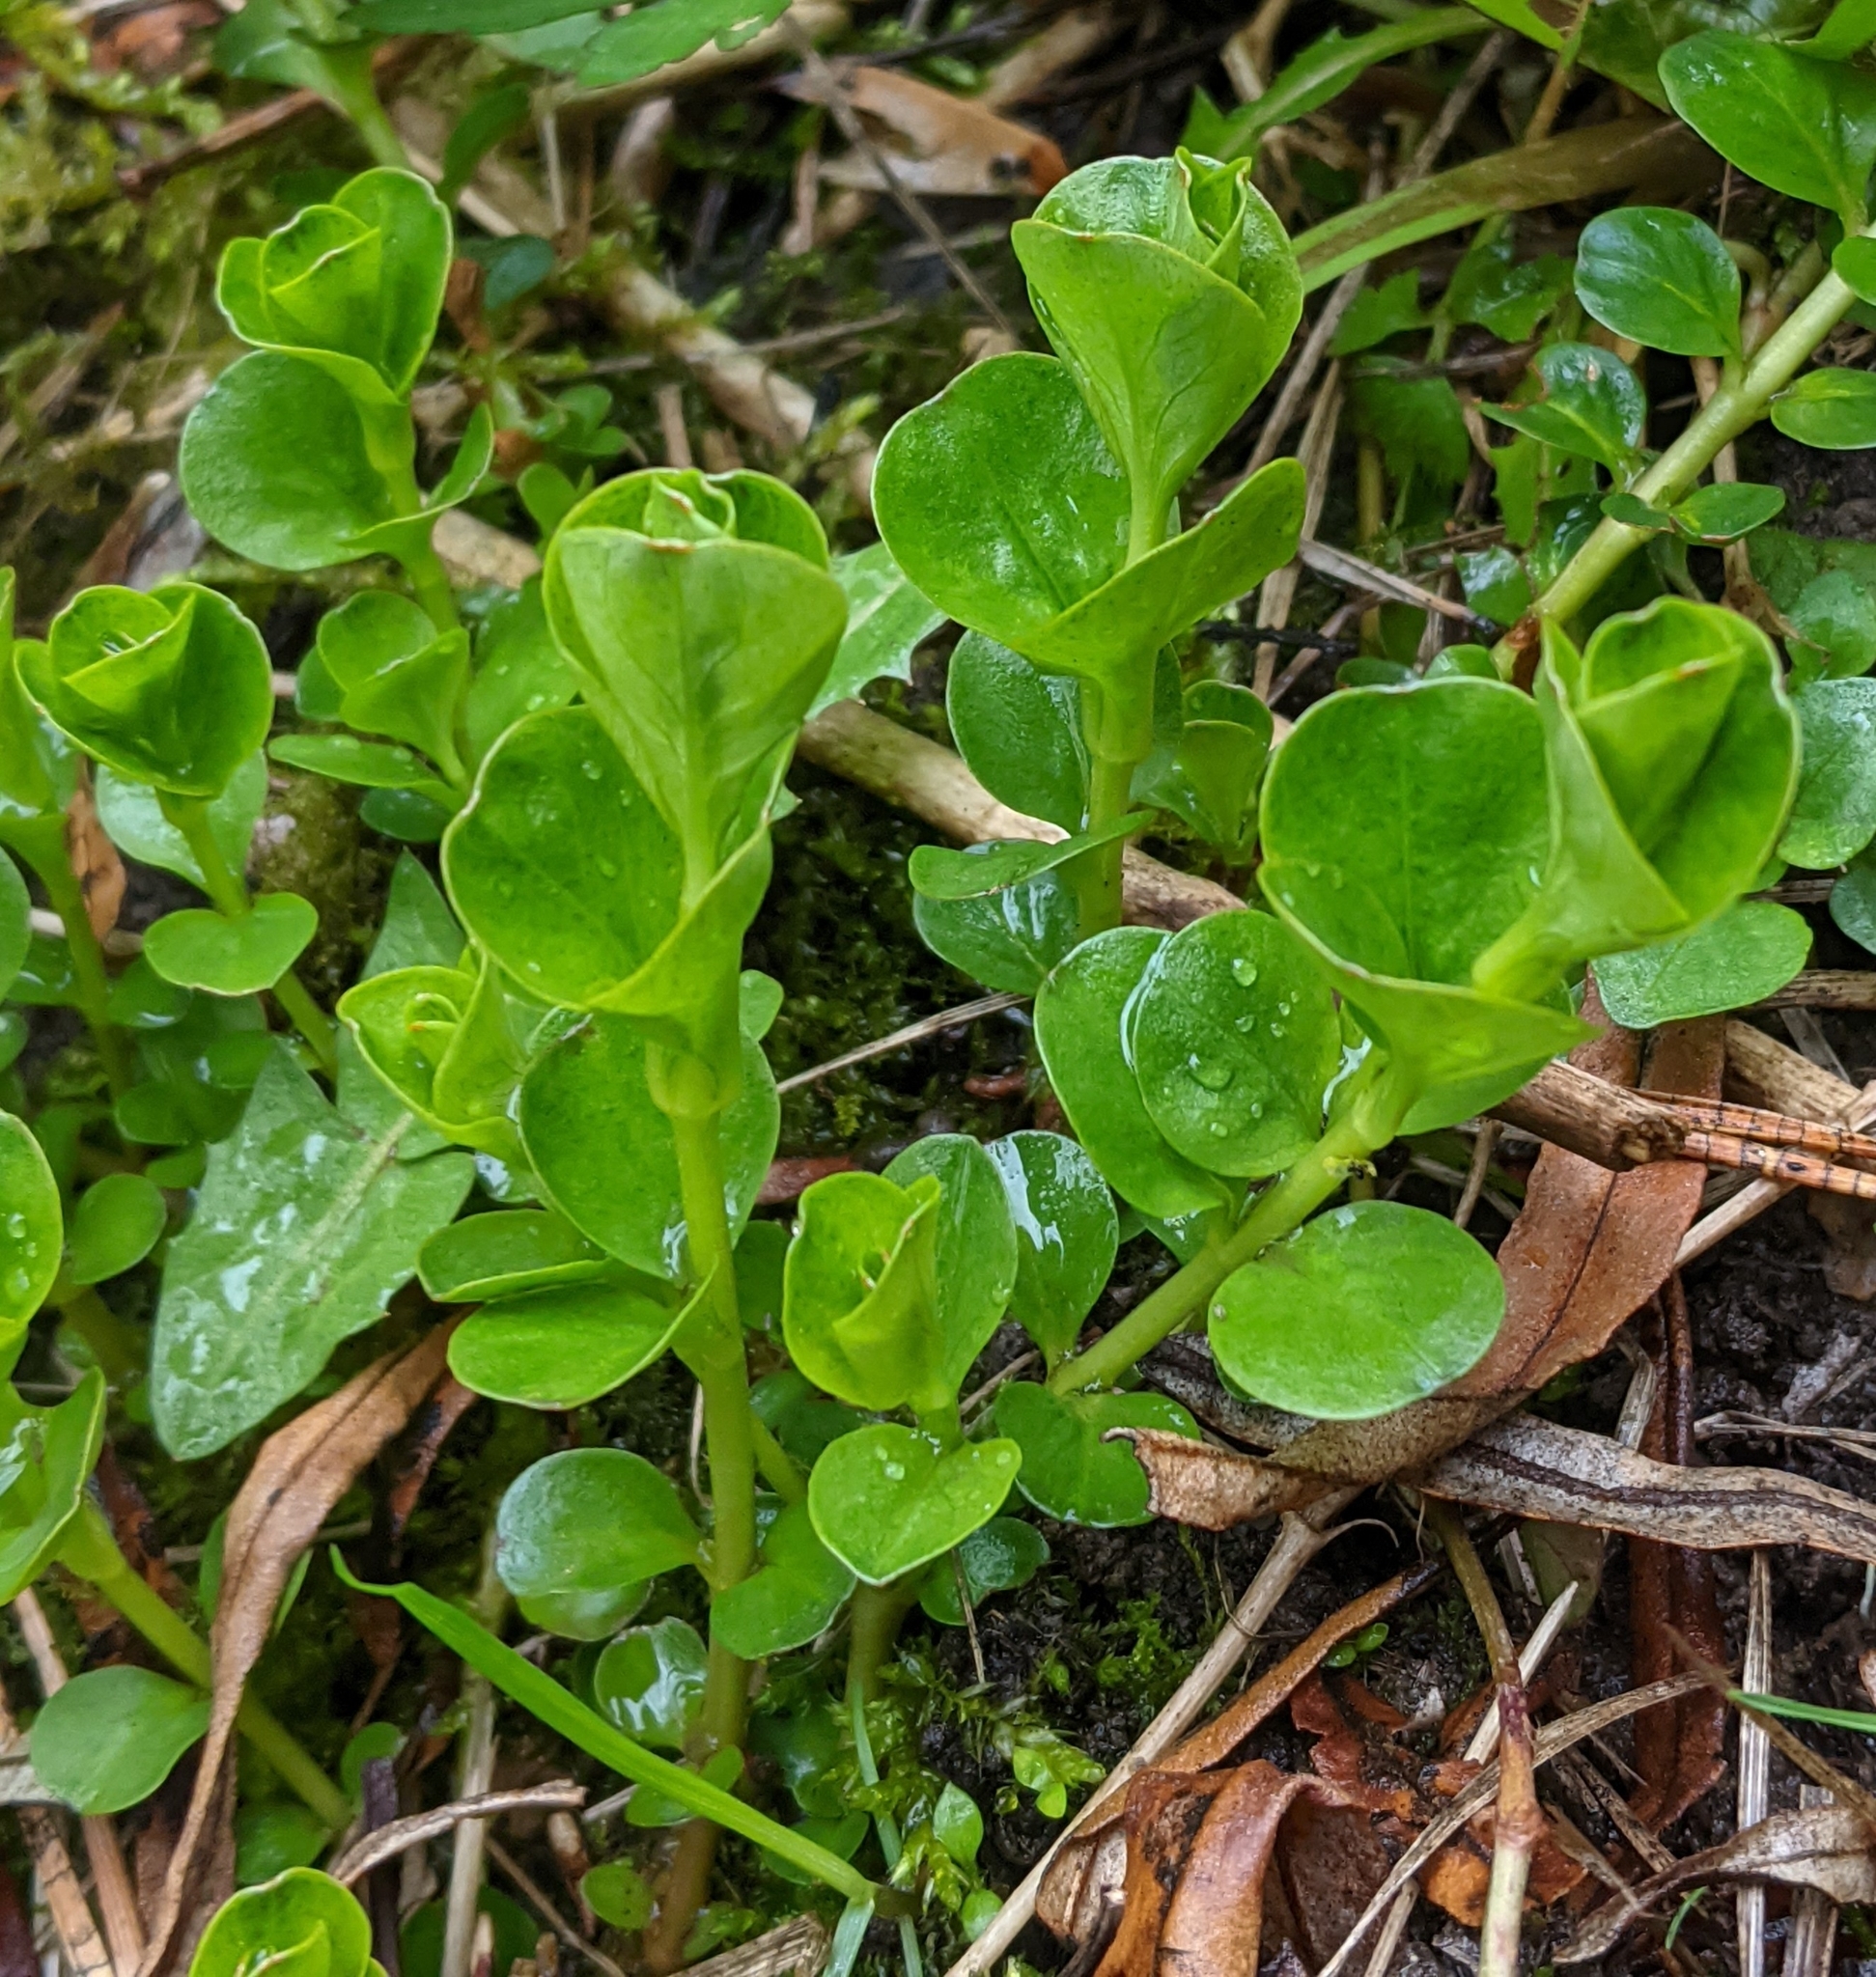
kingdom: Plantae
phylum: Tracheophyta
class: Magnoliopsida
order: Ericales
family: Primulaceae
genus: Lysimachia
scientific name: Lysimachia nummularia
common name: Moneywort
